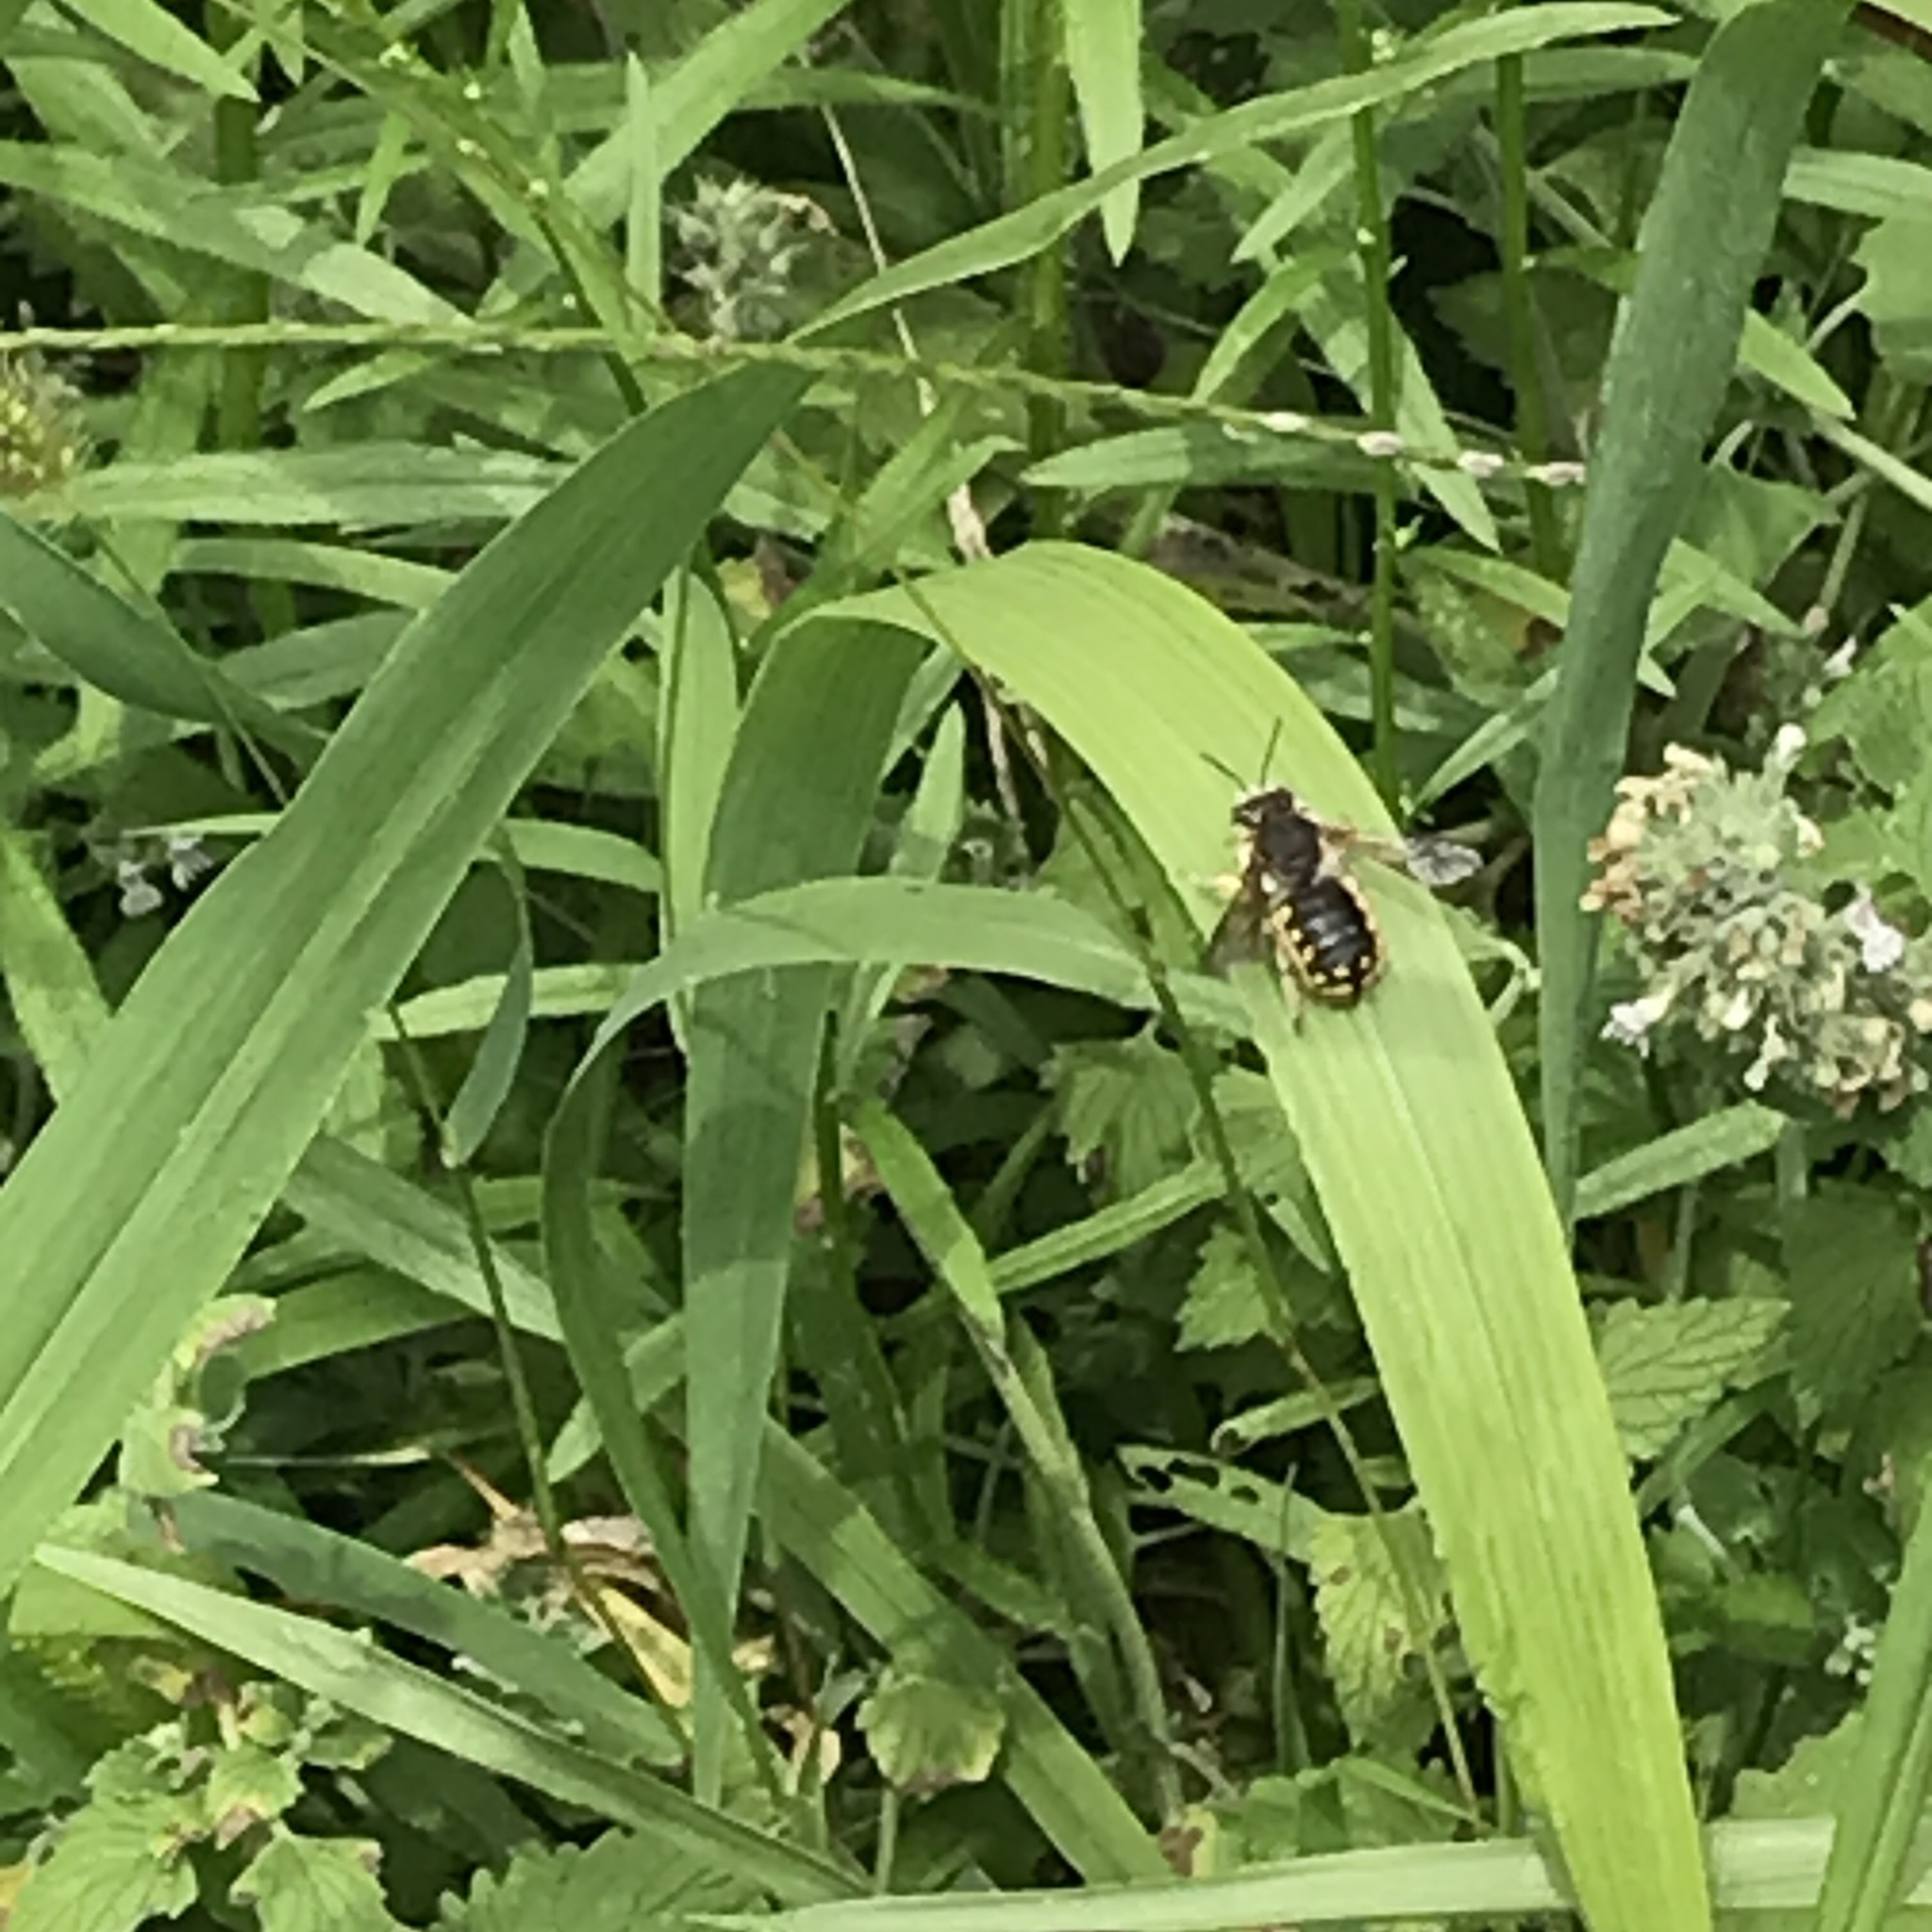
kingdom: Animalia
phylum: Arthropoda
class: Insecta
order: Hymenoptera
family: Megachilidae
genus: Anthidium
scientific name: Anthidium manicatum
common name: Wool carder bee
